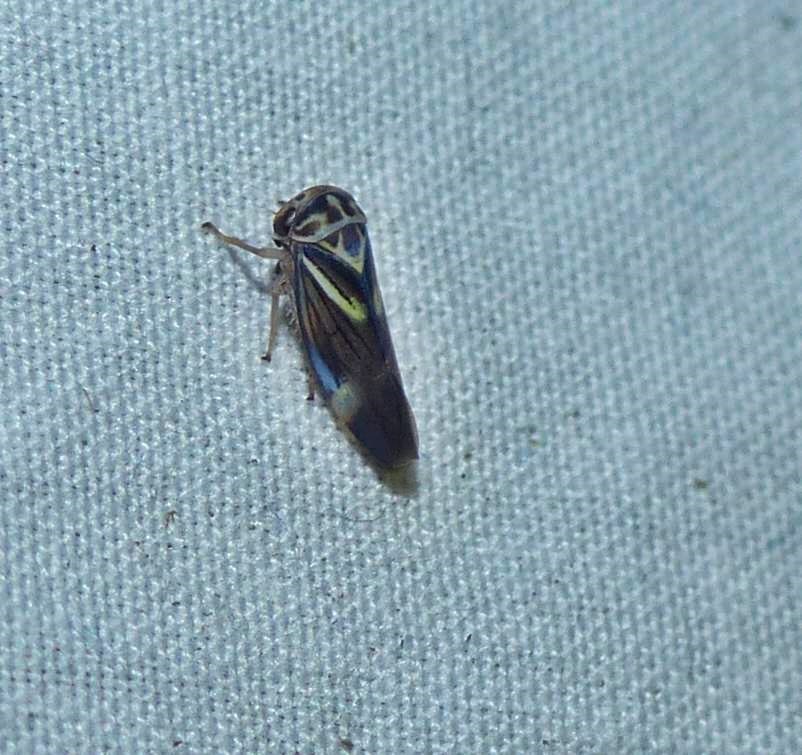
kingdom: Animalia
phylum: Arthropoda
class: Insecta
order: Hemiptera
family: Cicadellidae
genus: Balcanocerus
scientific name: Balcanocerus fitchi
